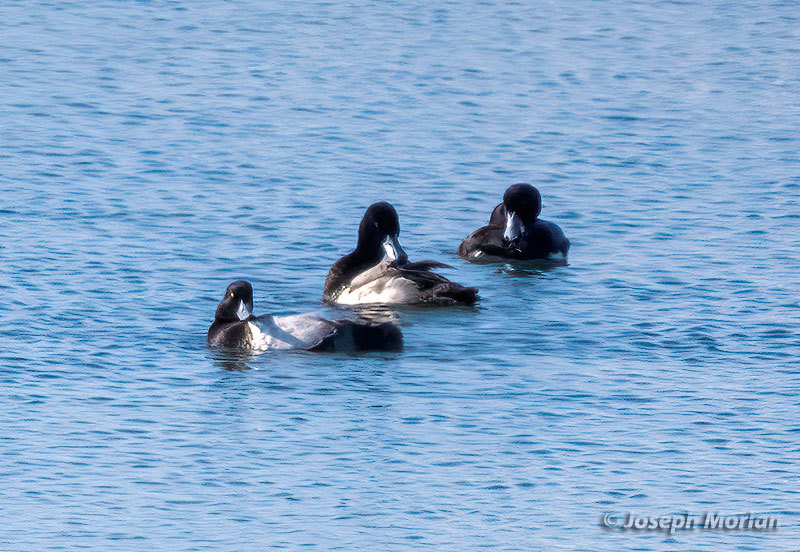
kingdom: Animalia
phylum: Chordata
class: Aves
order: Anseriformes
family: Anatidae
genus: Aythya
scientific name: Aythya marila
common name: Greater scaup
